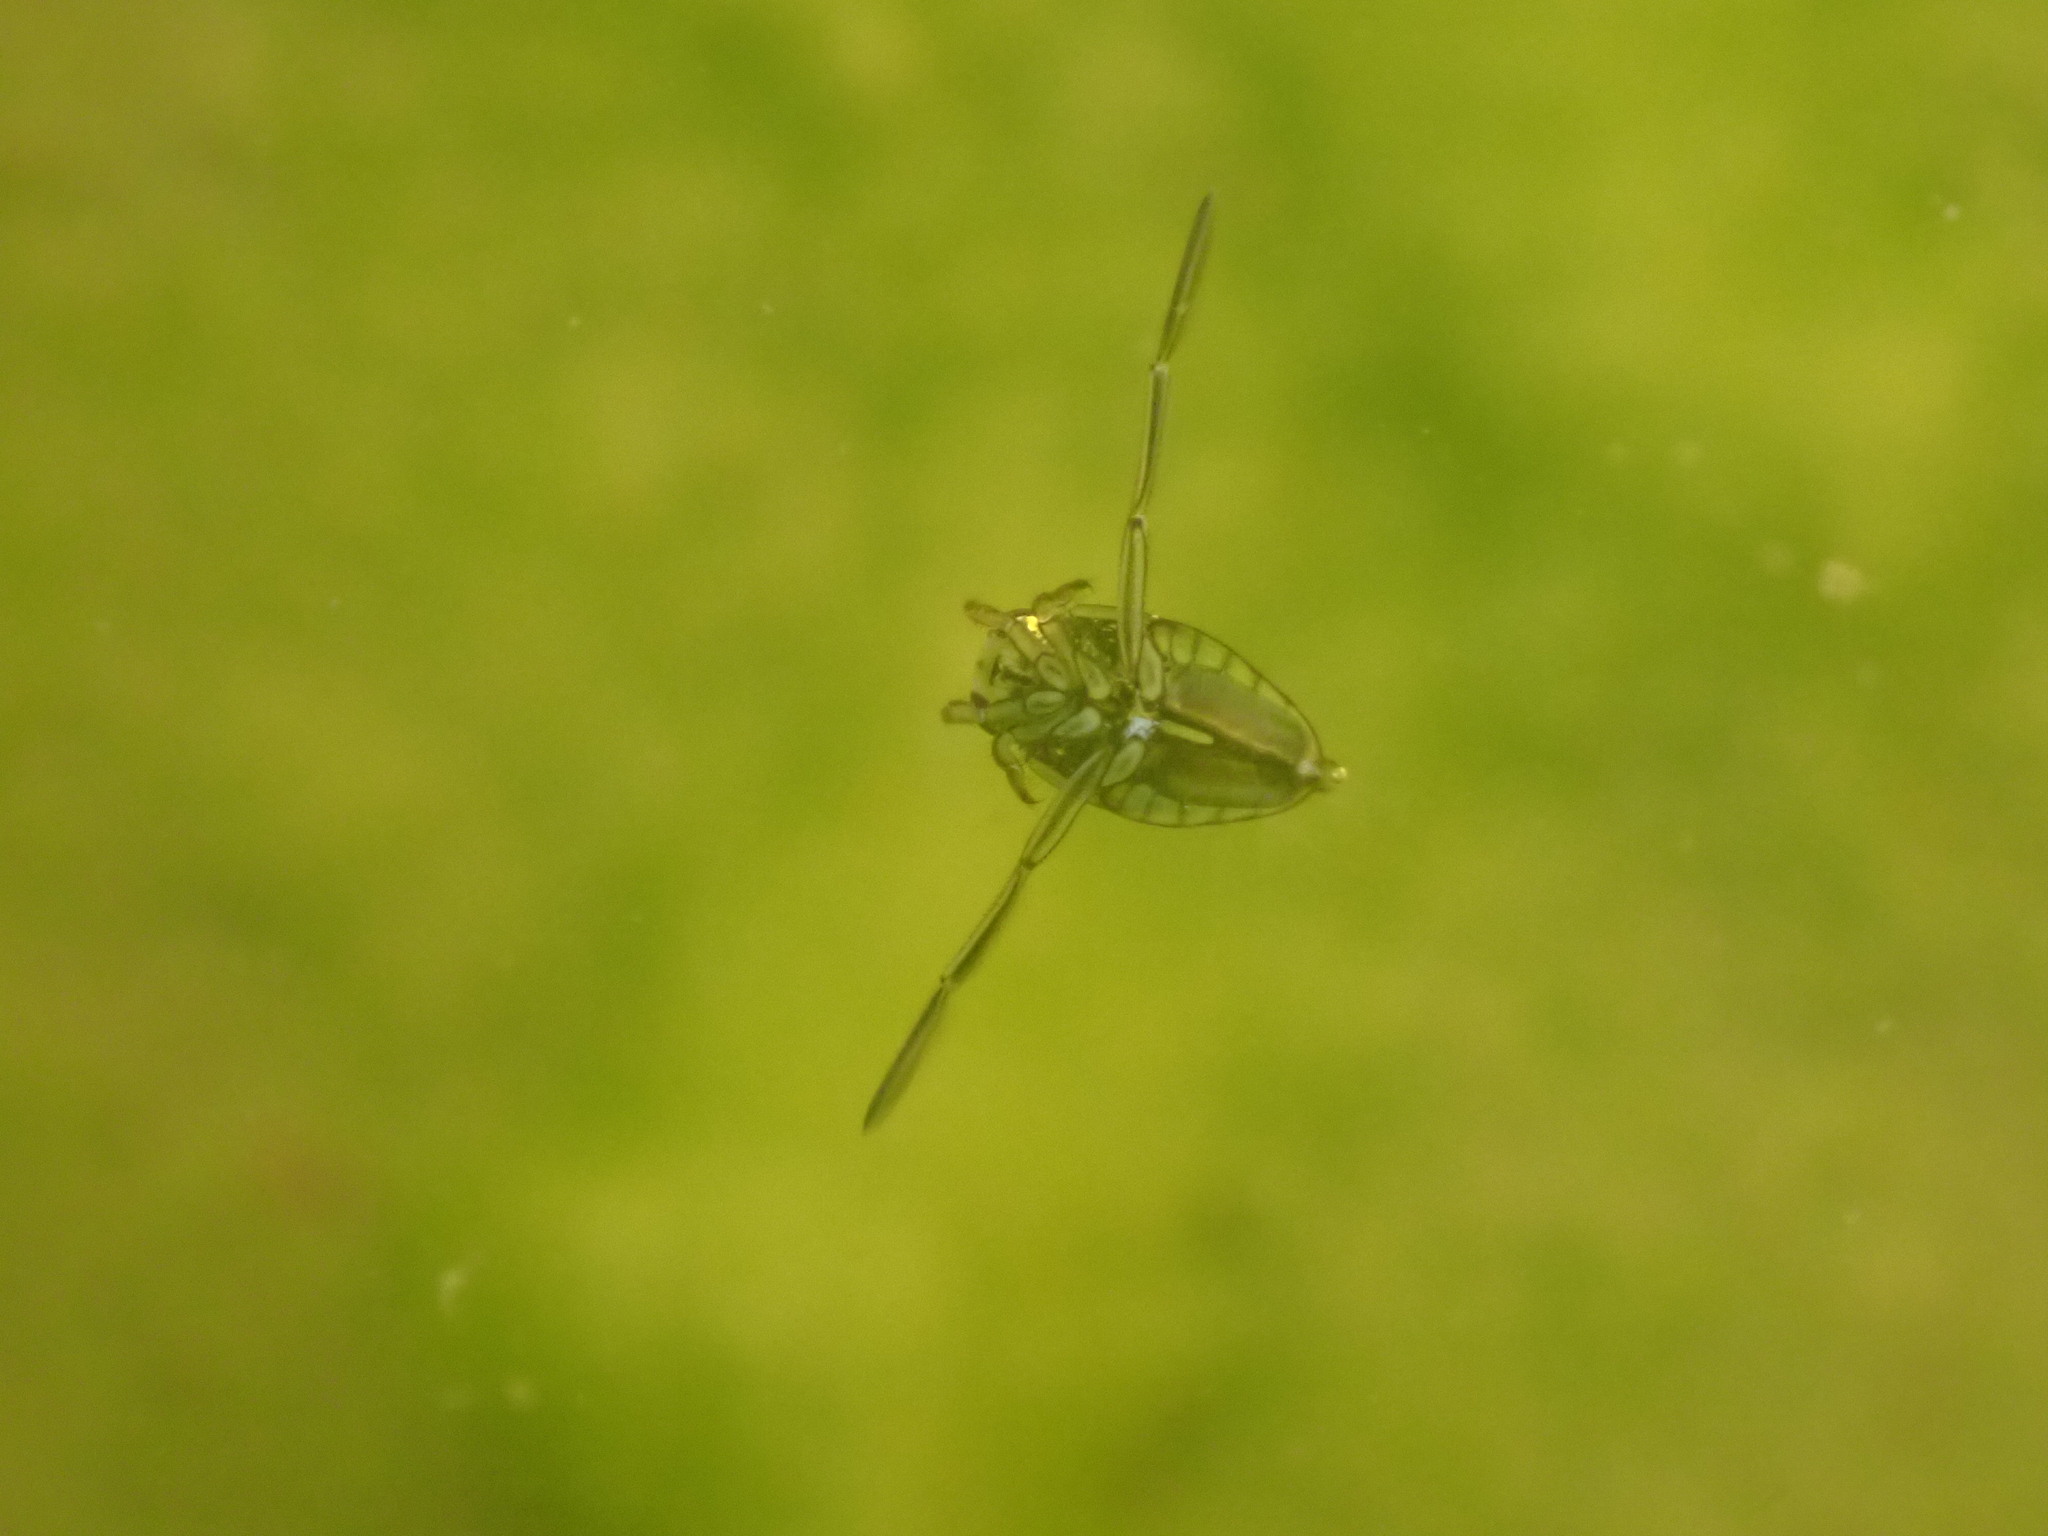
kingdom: Animalia
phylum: Arthropoda
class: Insecta
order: Hemiptera
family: Notonectidae
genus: Notonecta
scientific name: Notonecta
